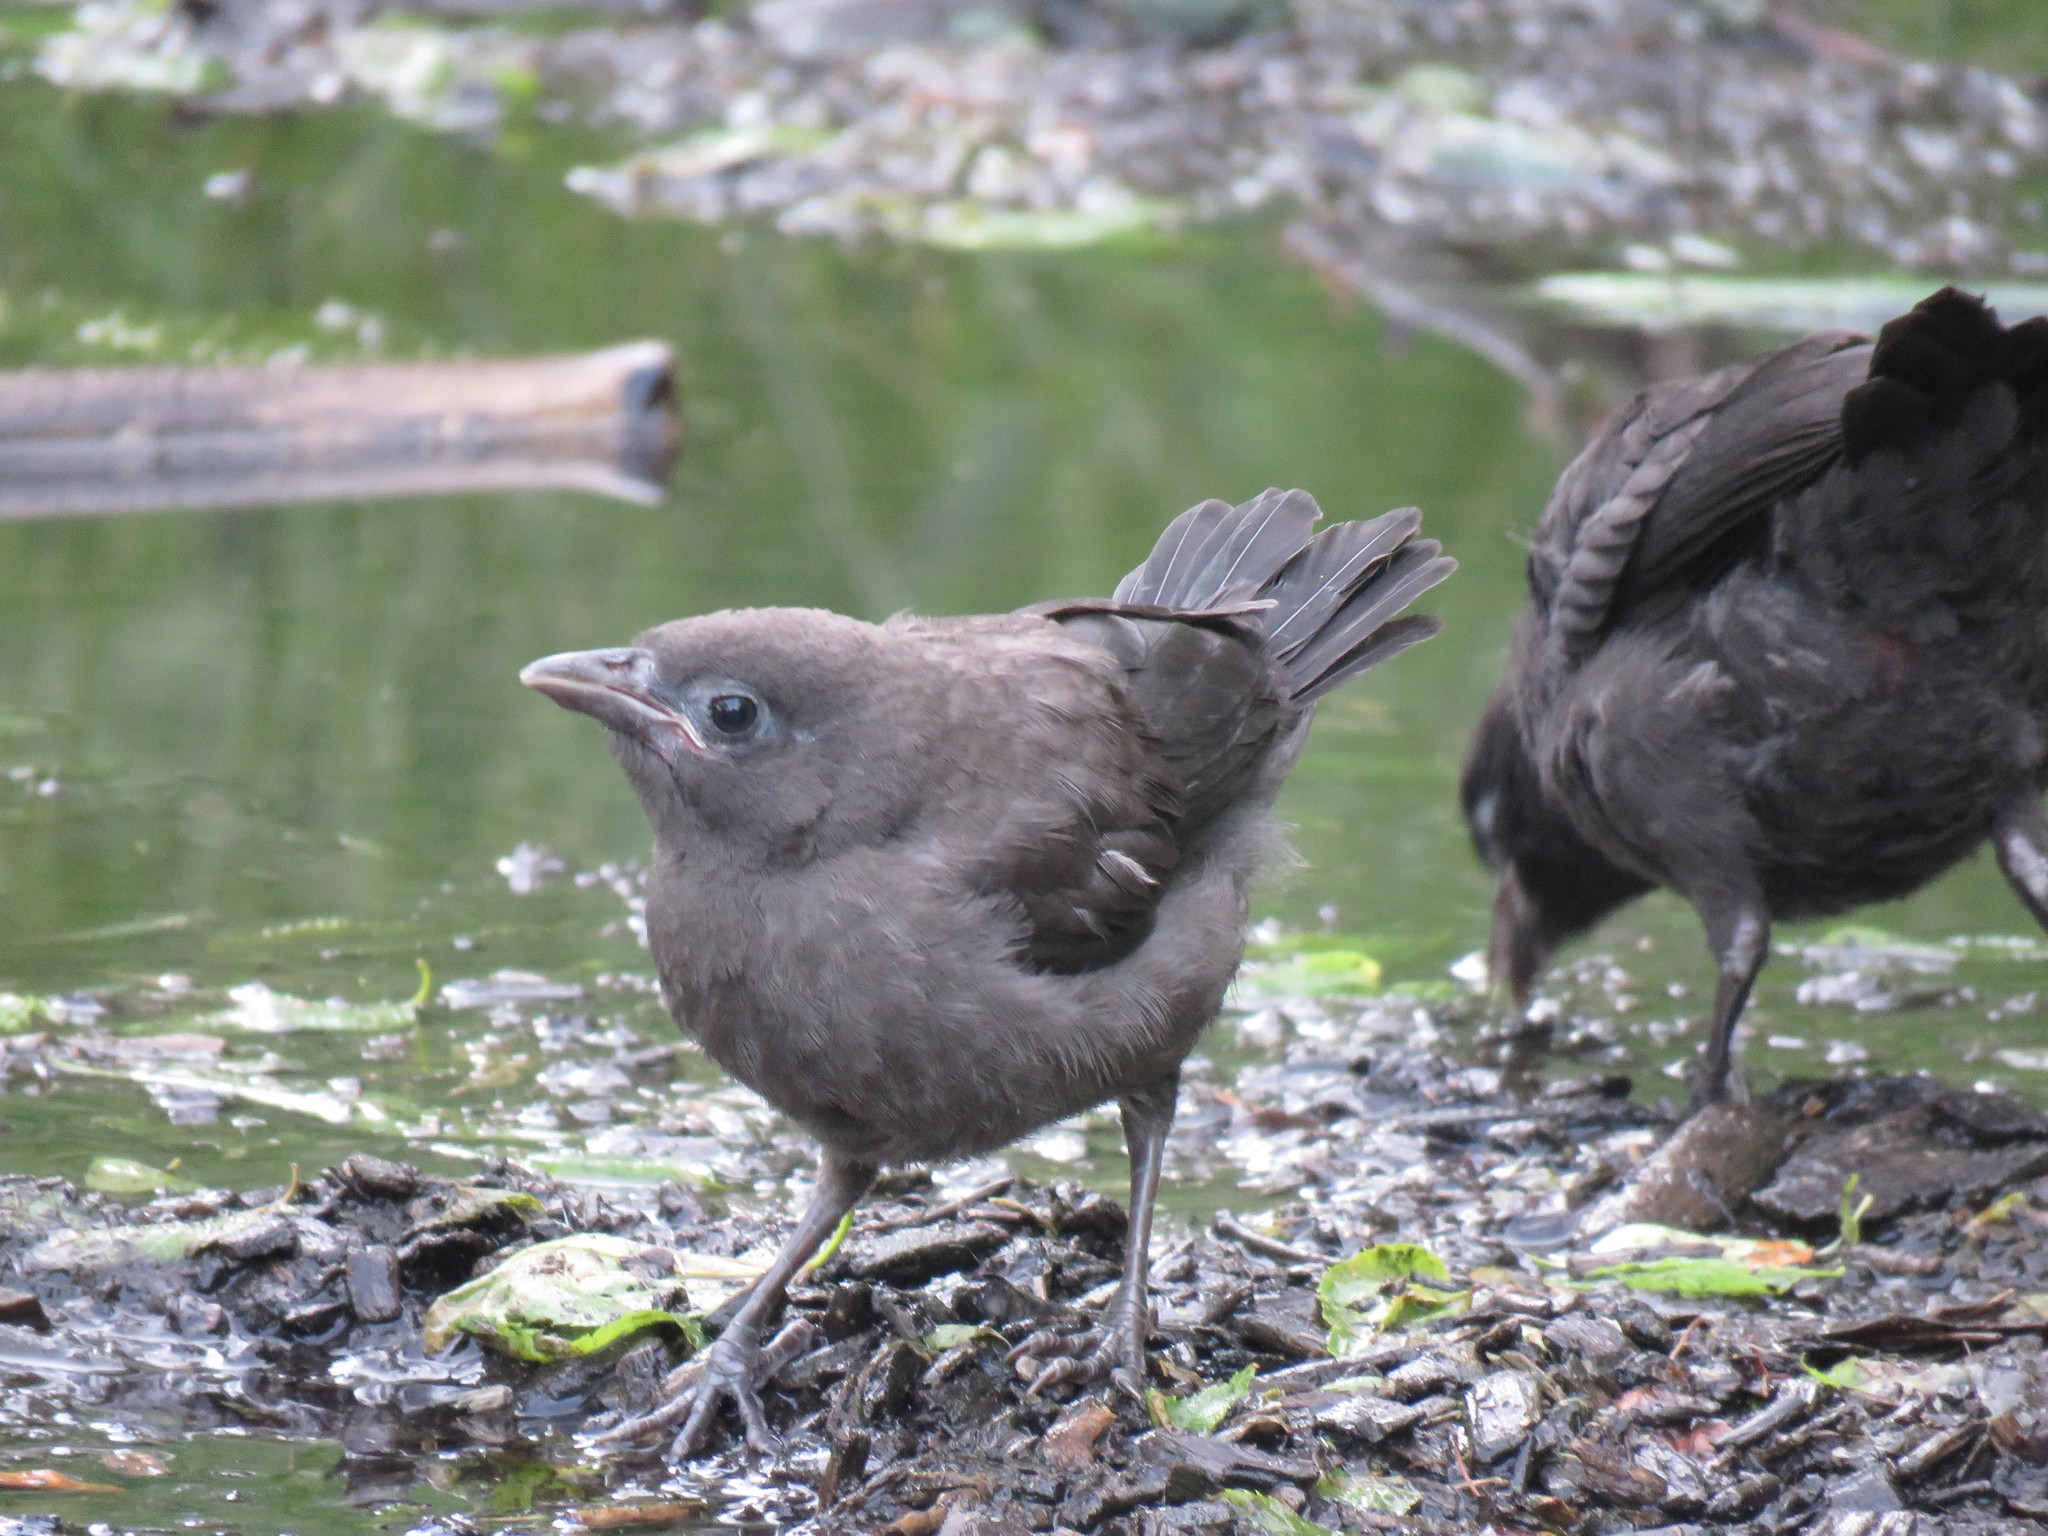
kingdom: Animalia
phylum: Chordata
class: Aves
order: Passeriformes
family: Icteridae
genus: Quiscalus
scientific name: Quiscalus quiscula
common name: Common grackle
